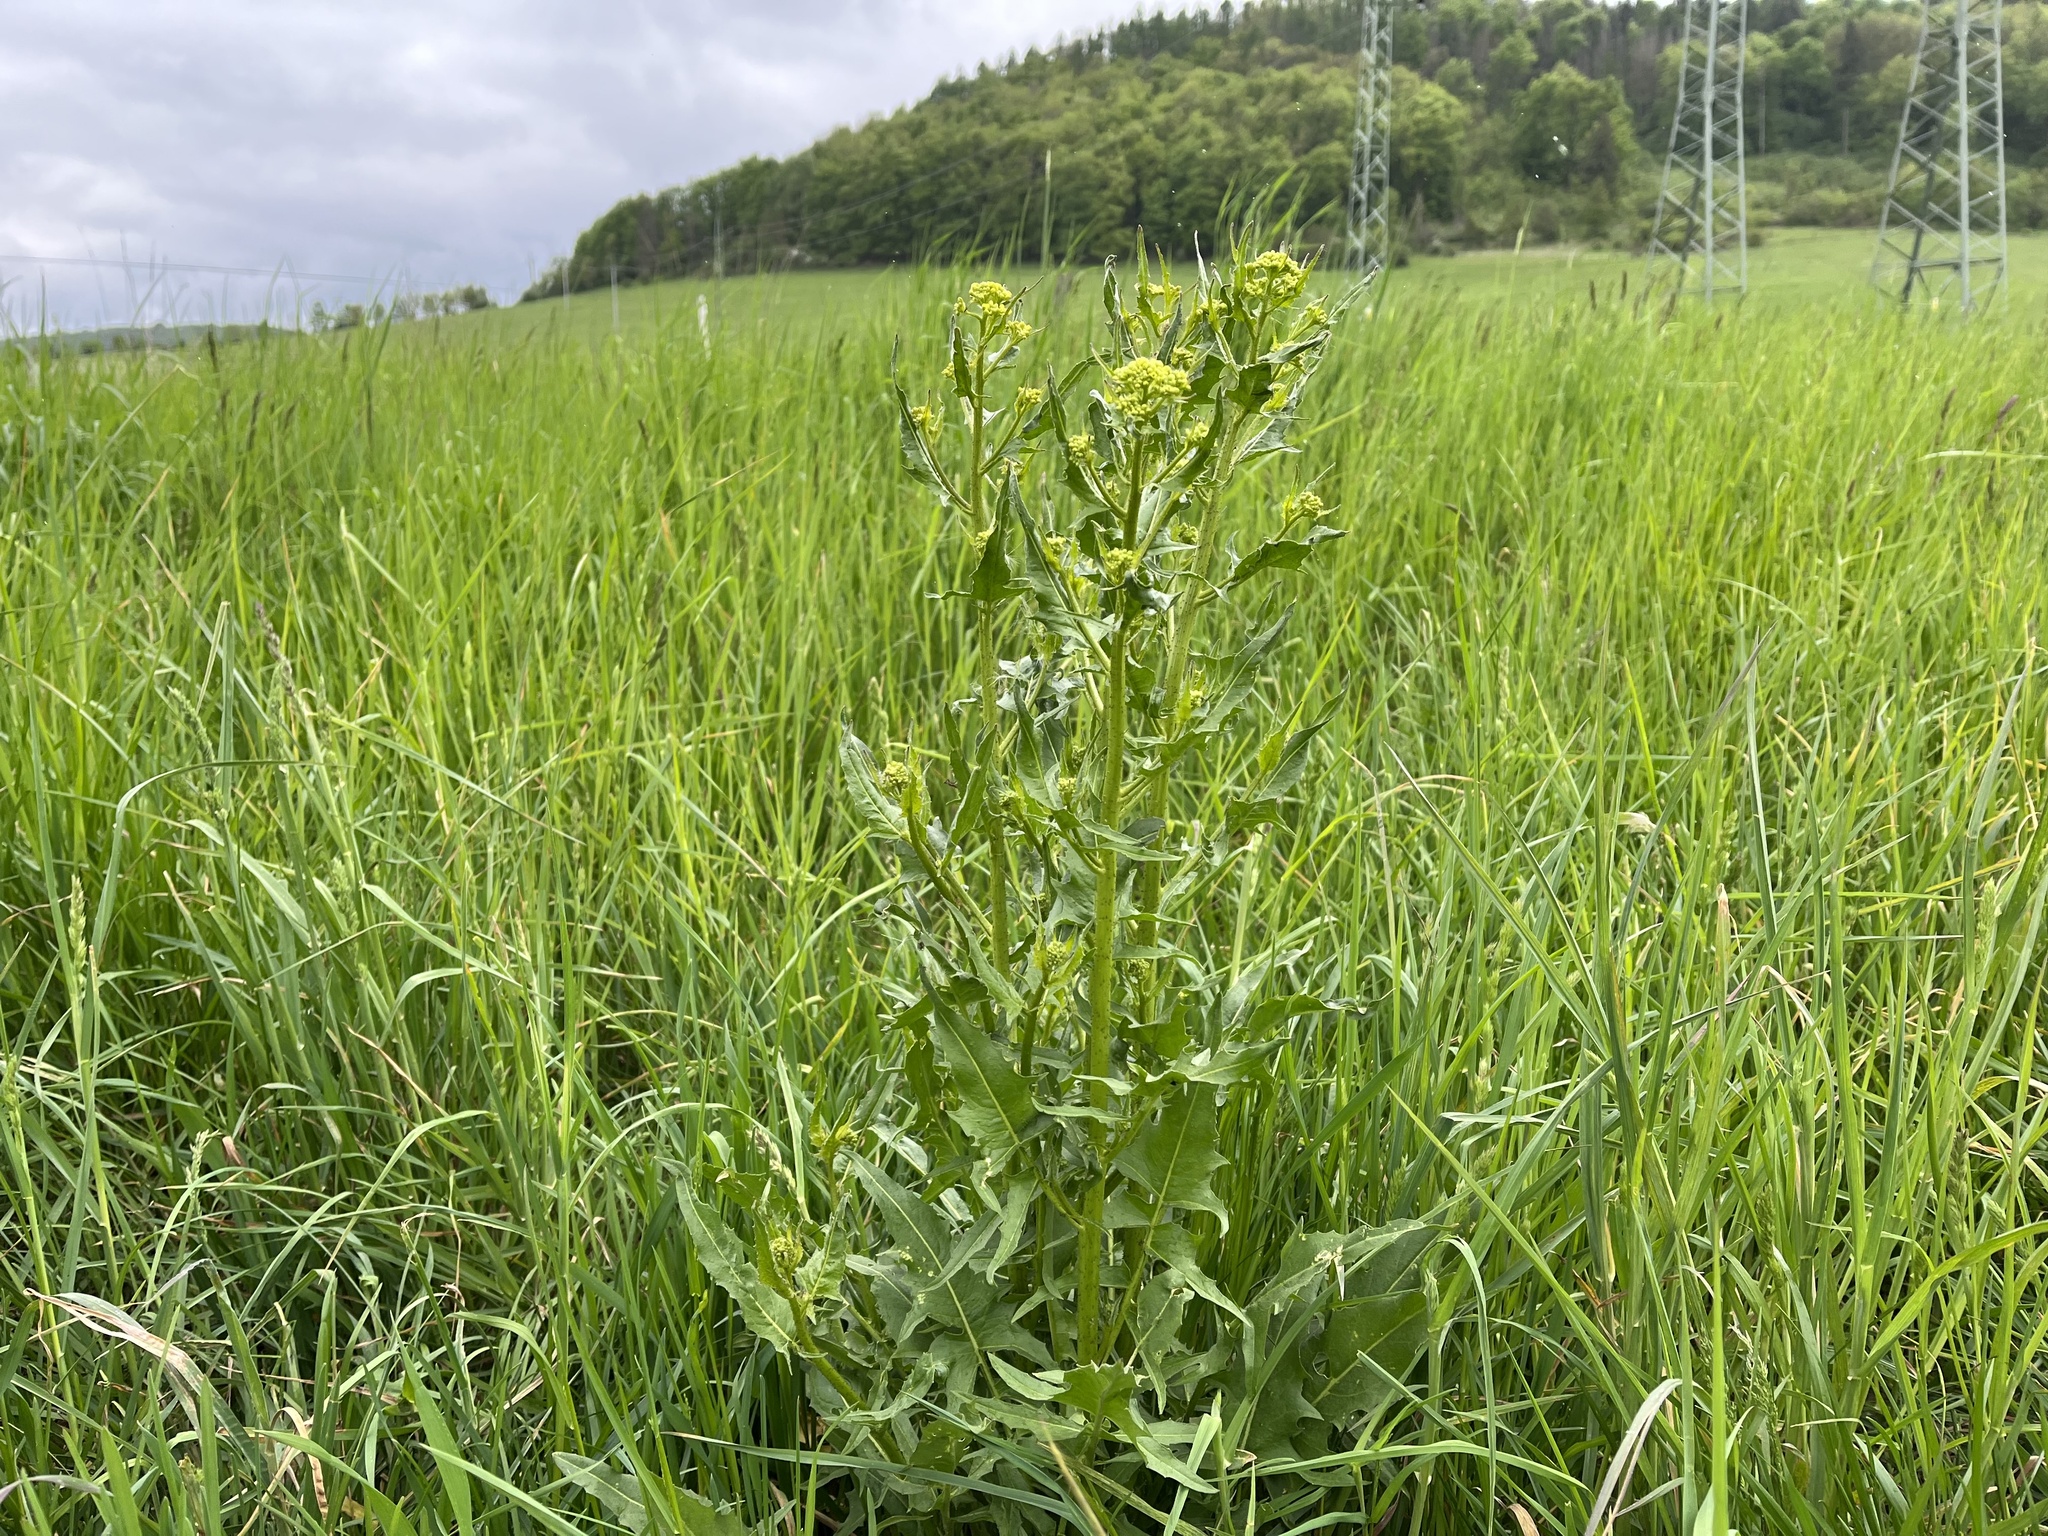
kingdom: Plantae
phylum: Tracheophyta
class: Magnoliopsida
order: Brassicales
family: Brassicaceae
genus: Bunias
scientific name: Bunias orientalis
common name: Warty-cabbage
